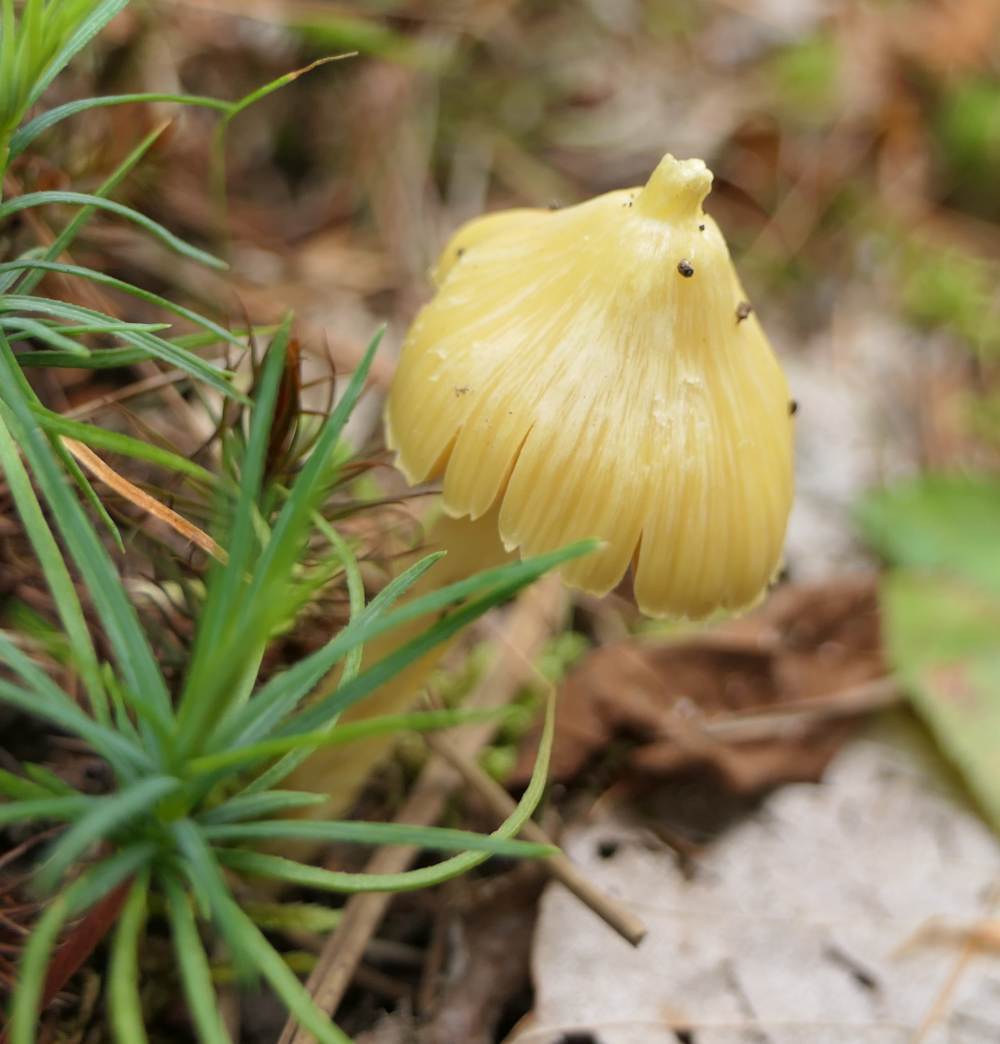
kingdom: Fungi
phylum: Basidiomycota
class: Agaricomycetes
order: Agaricales
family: Entolomataceae
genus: Entoloma
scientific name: Entoloma murrayi
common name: Yellow unicorn entoloma
